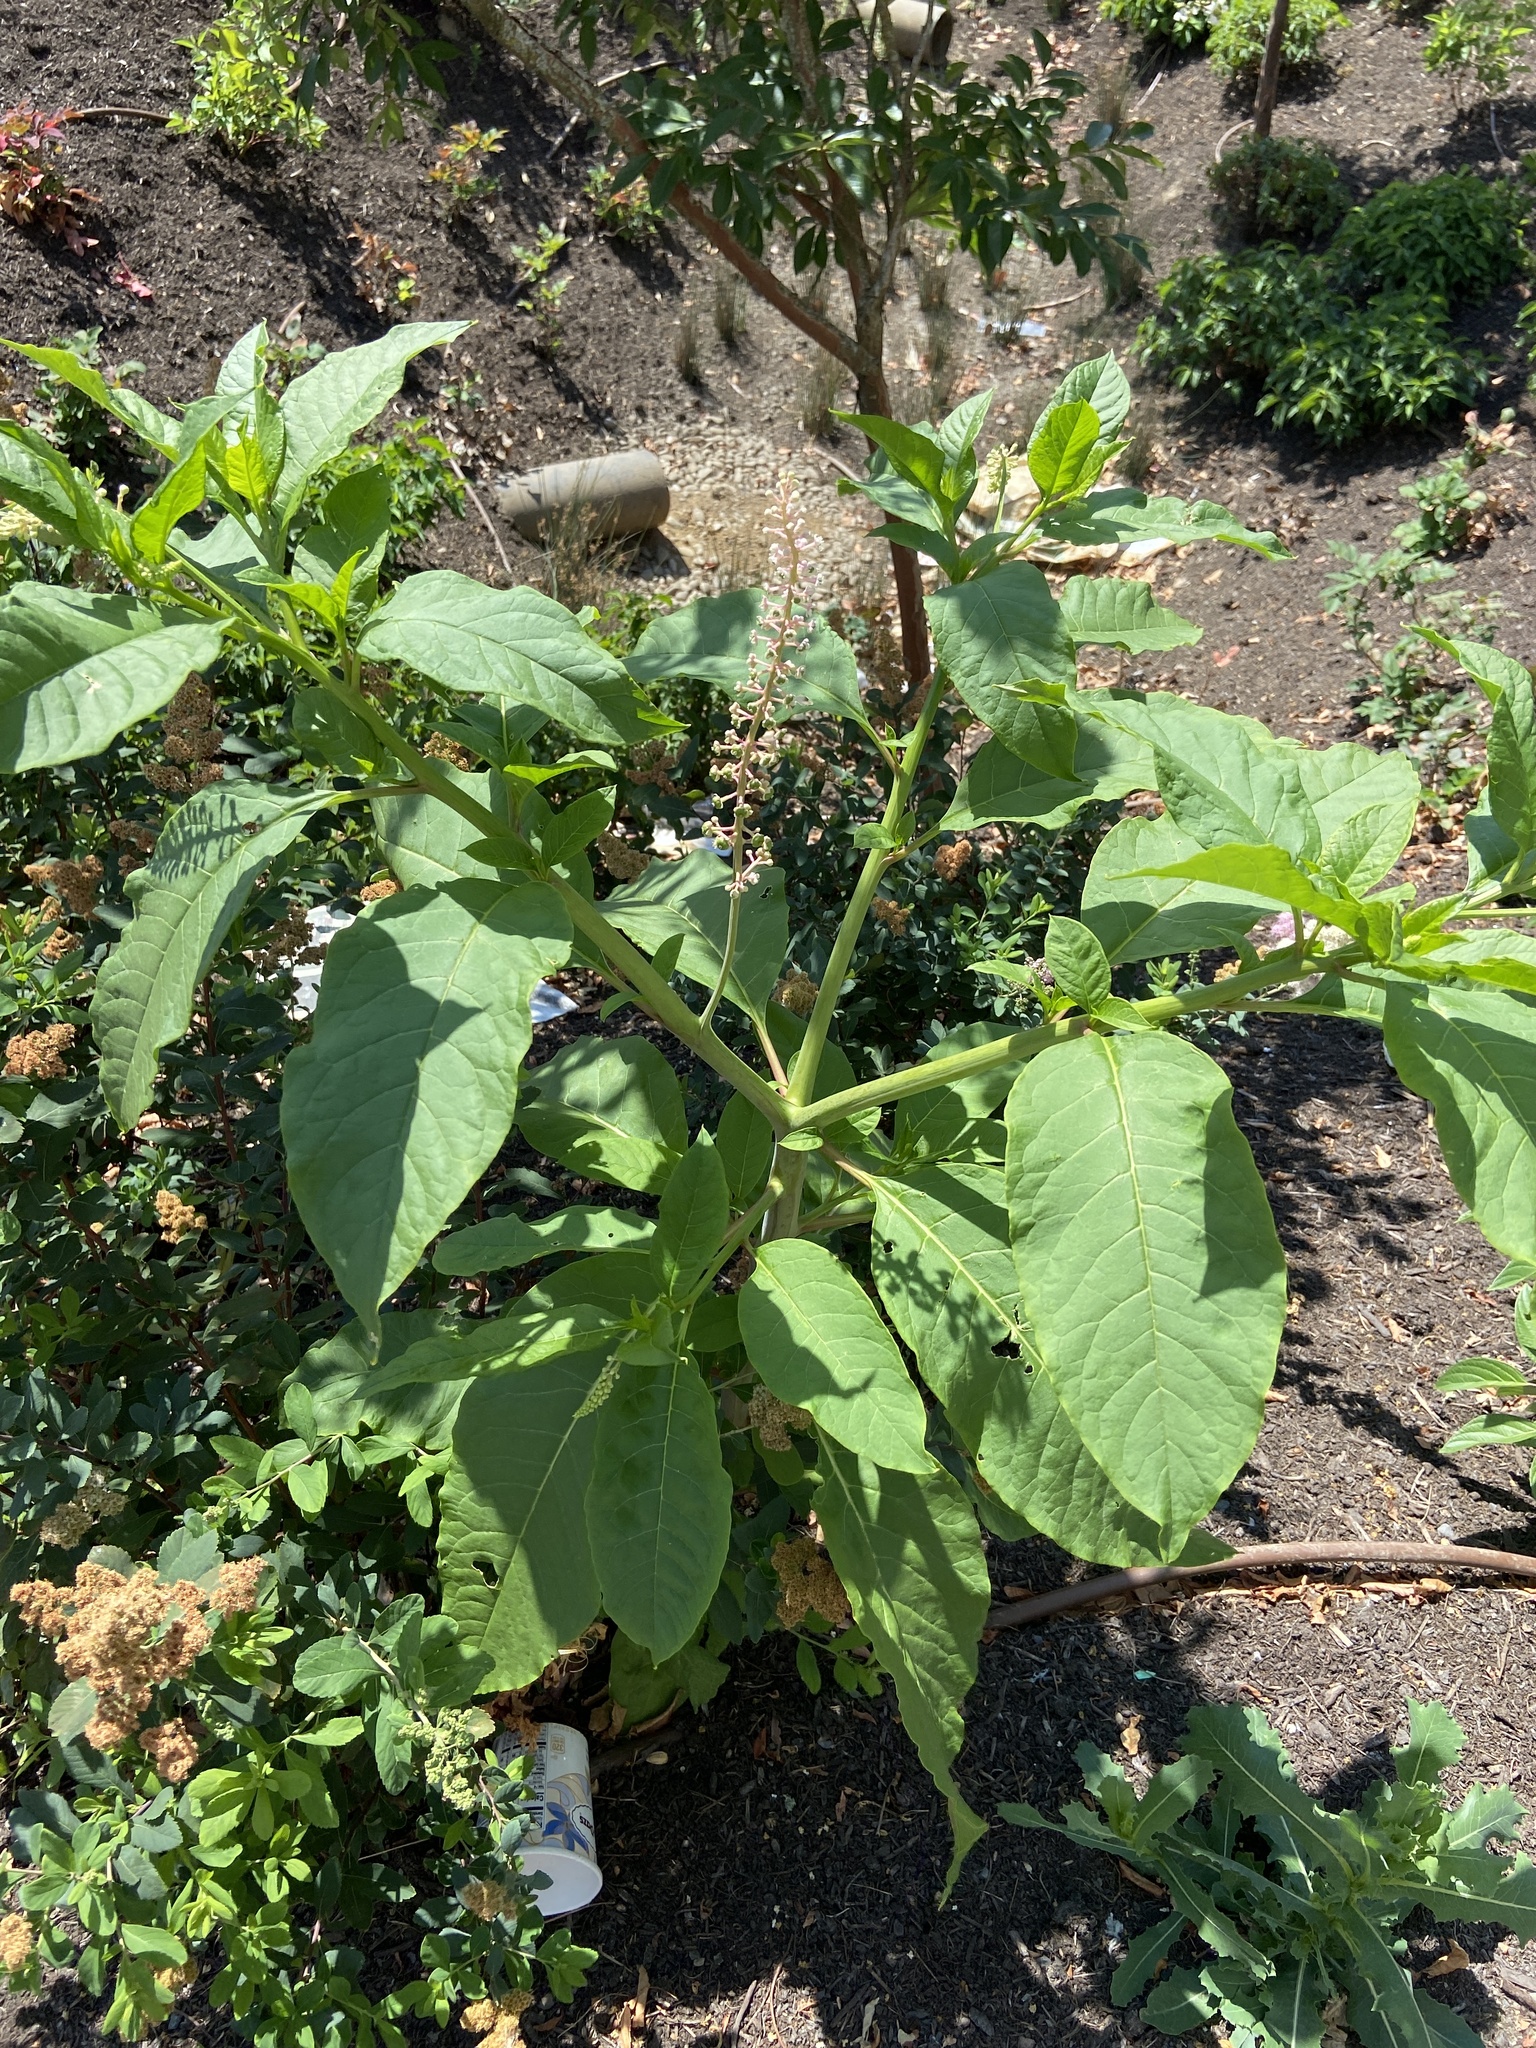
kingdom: Plantae
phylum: Tracheophyta
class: Magnoliopsida
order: Caryophyllales
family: Phytolaccaceae
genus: Phytolacca
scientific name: Phytolacca americana
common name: American pokeweed
